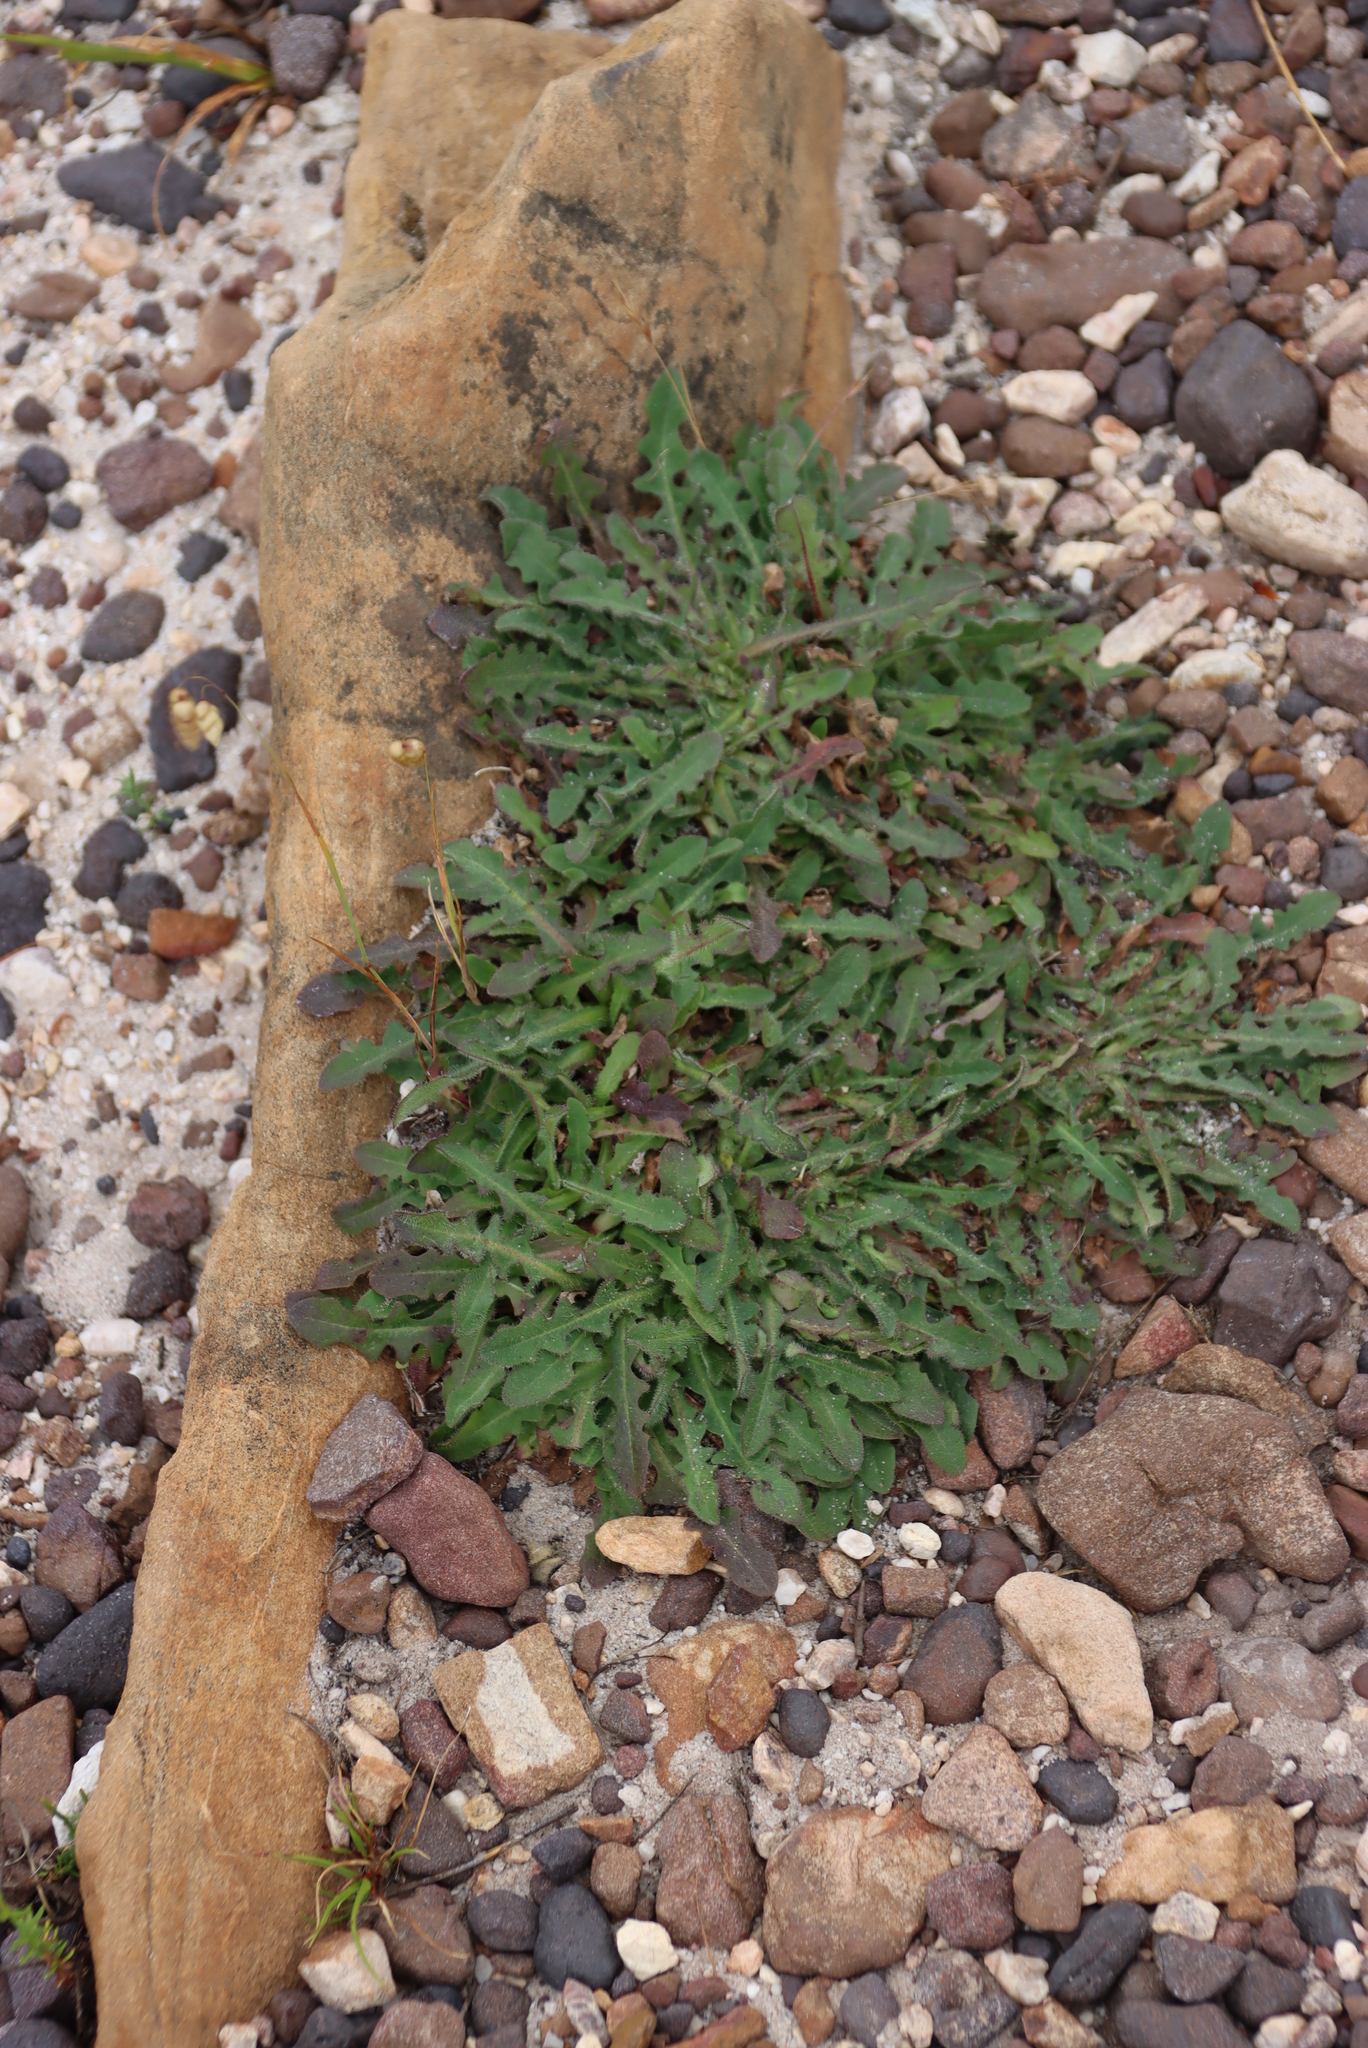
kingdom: Plantae
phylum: Tracheophyta
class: Magnoliopsida
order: Asterales
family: Asteraceae
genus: Hypochaeris
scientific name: Hypochaeris radicata
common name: Flatweed
